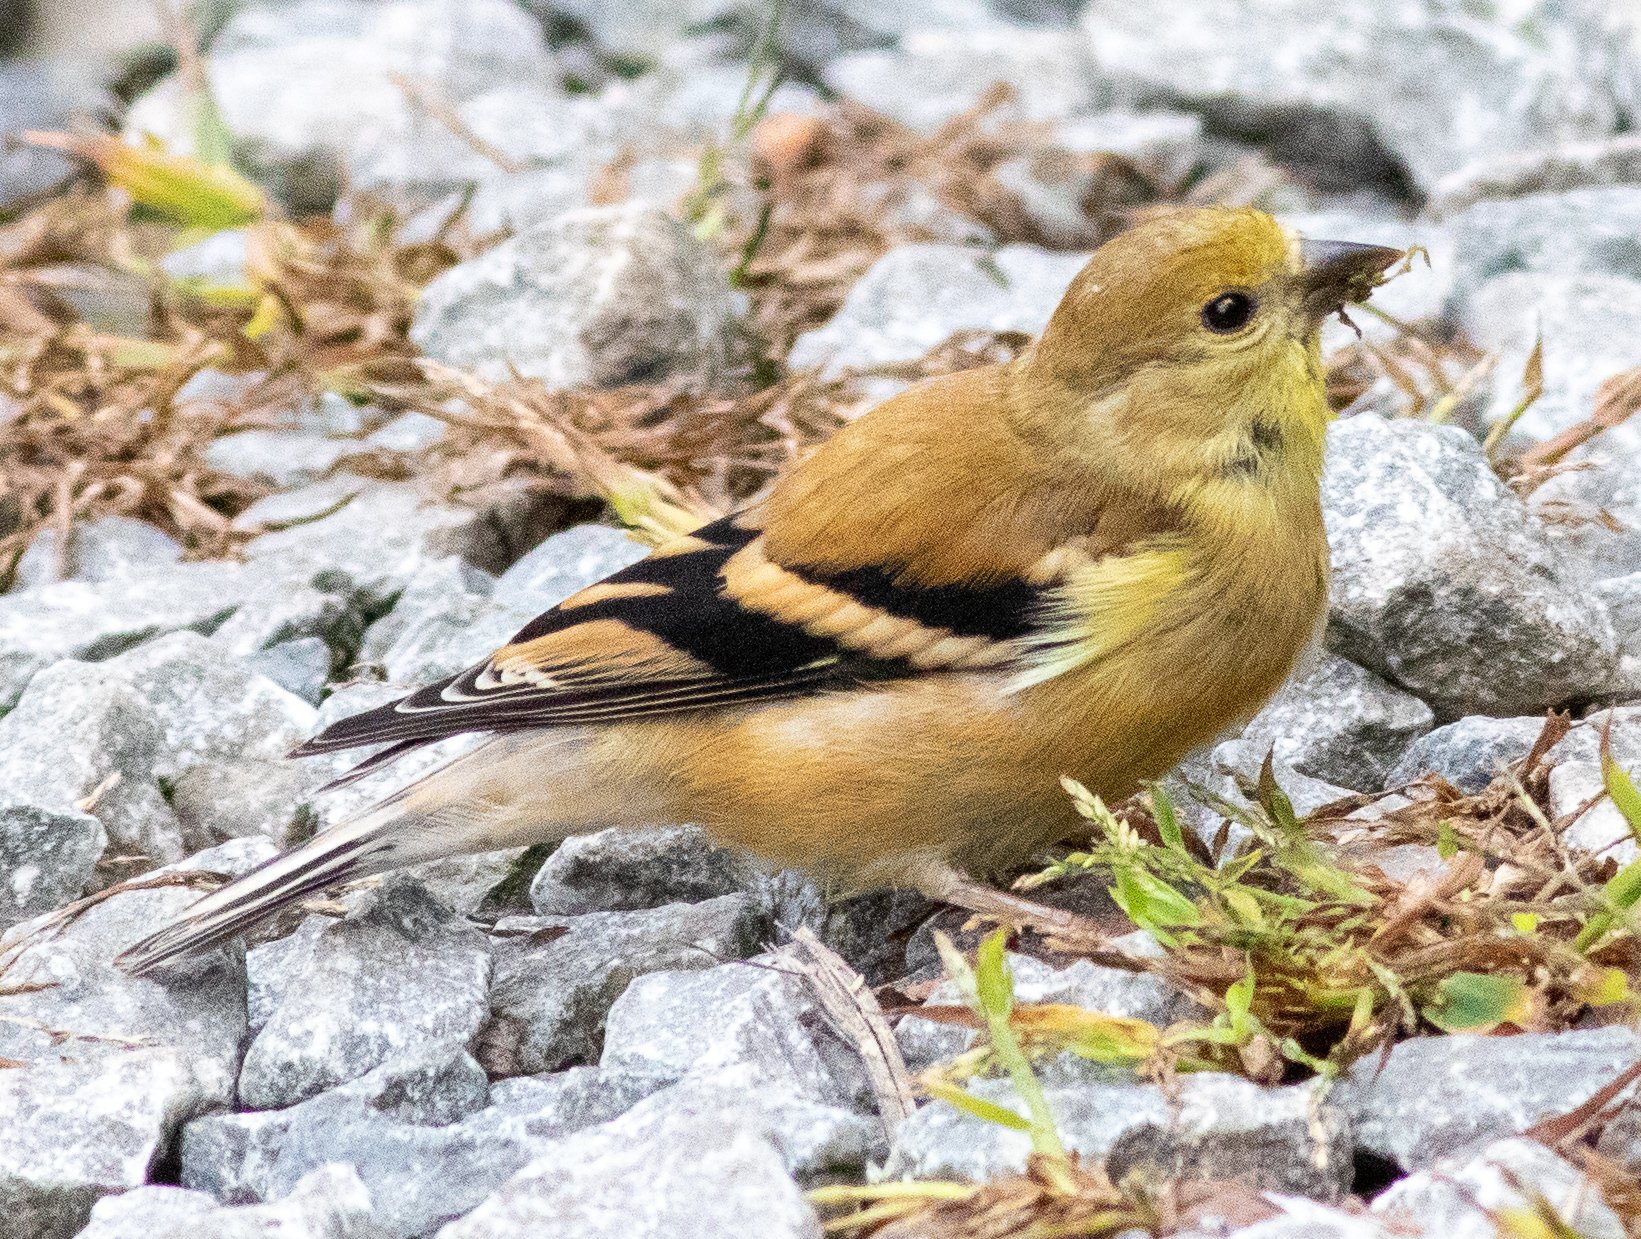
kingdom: Animalia
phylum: Chordata
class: Aves
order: Passeriformes
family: Fringillidae
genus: Spinus
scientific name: Spinus tristis
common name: American goldfinch
